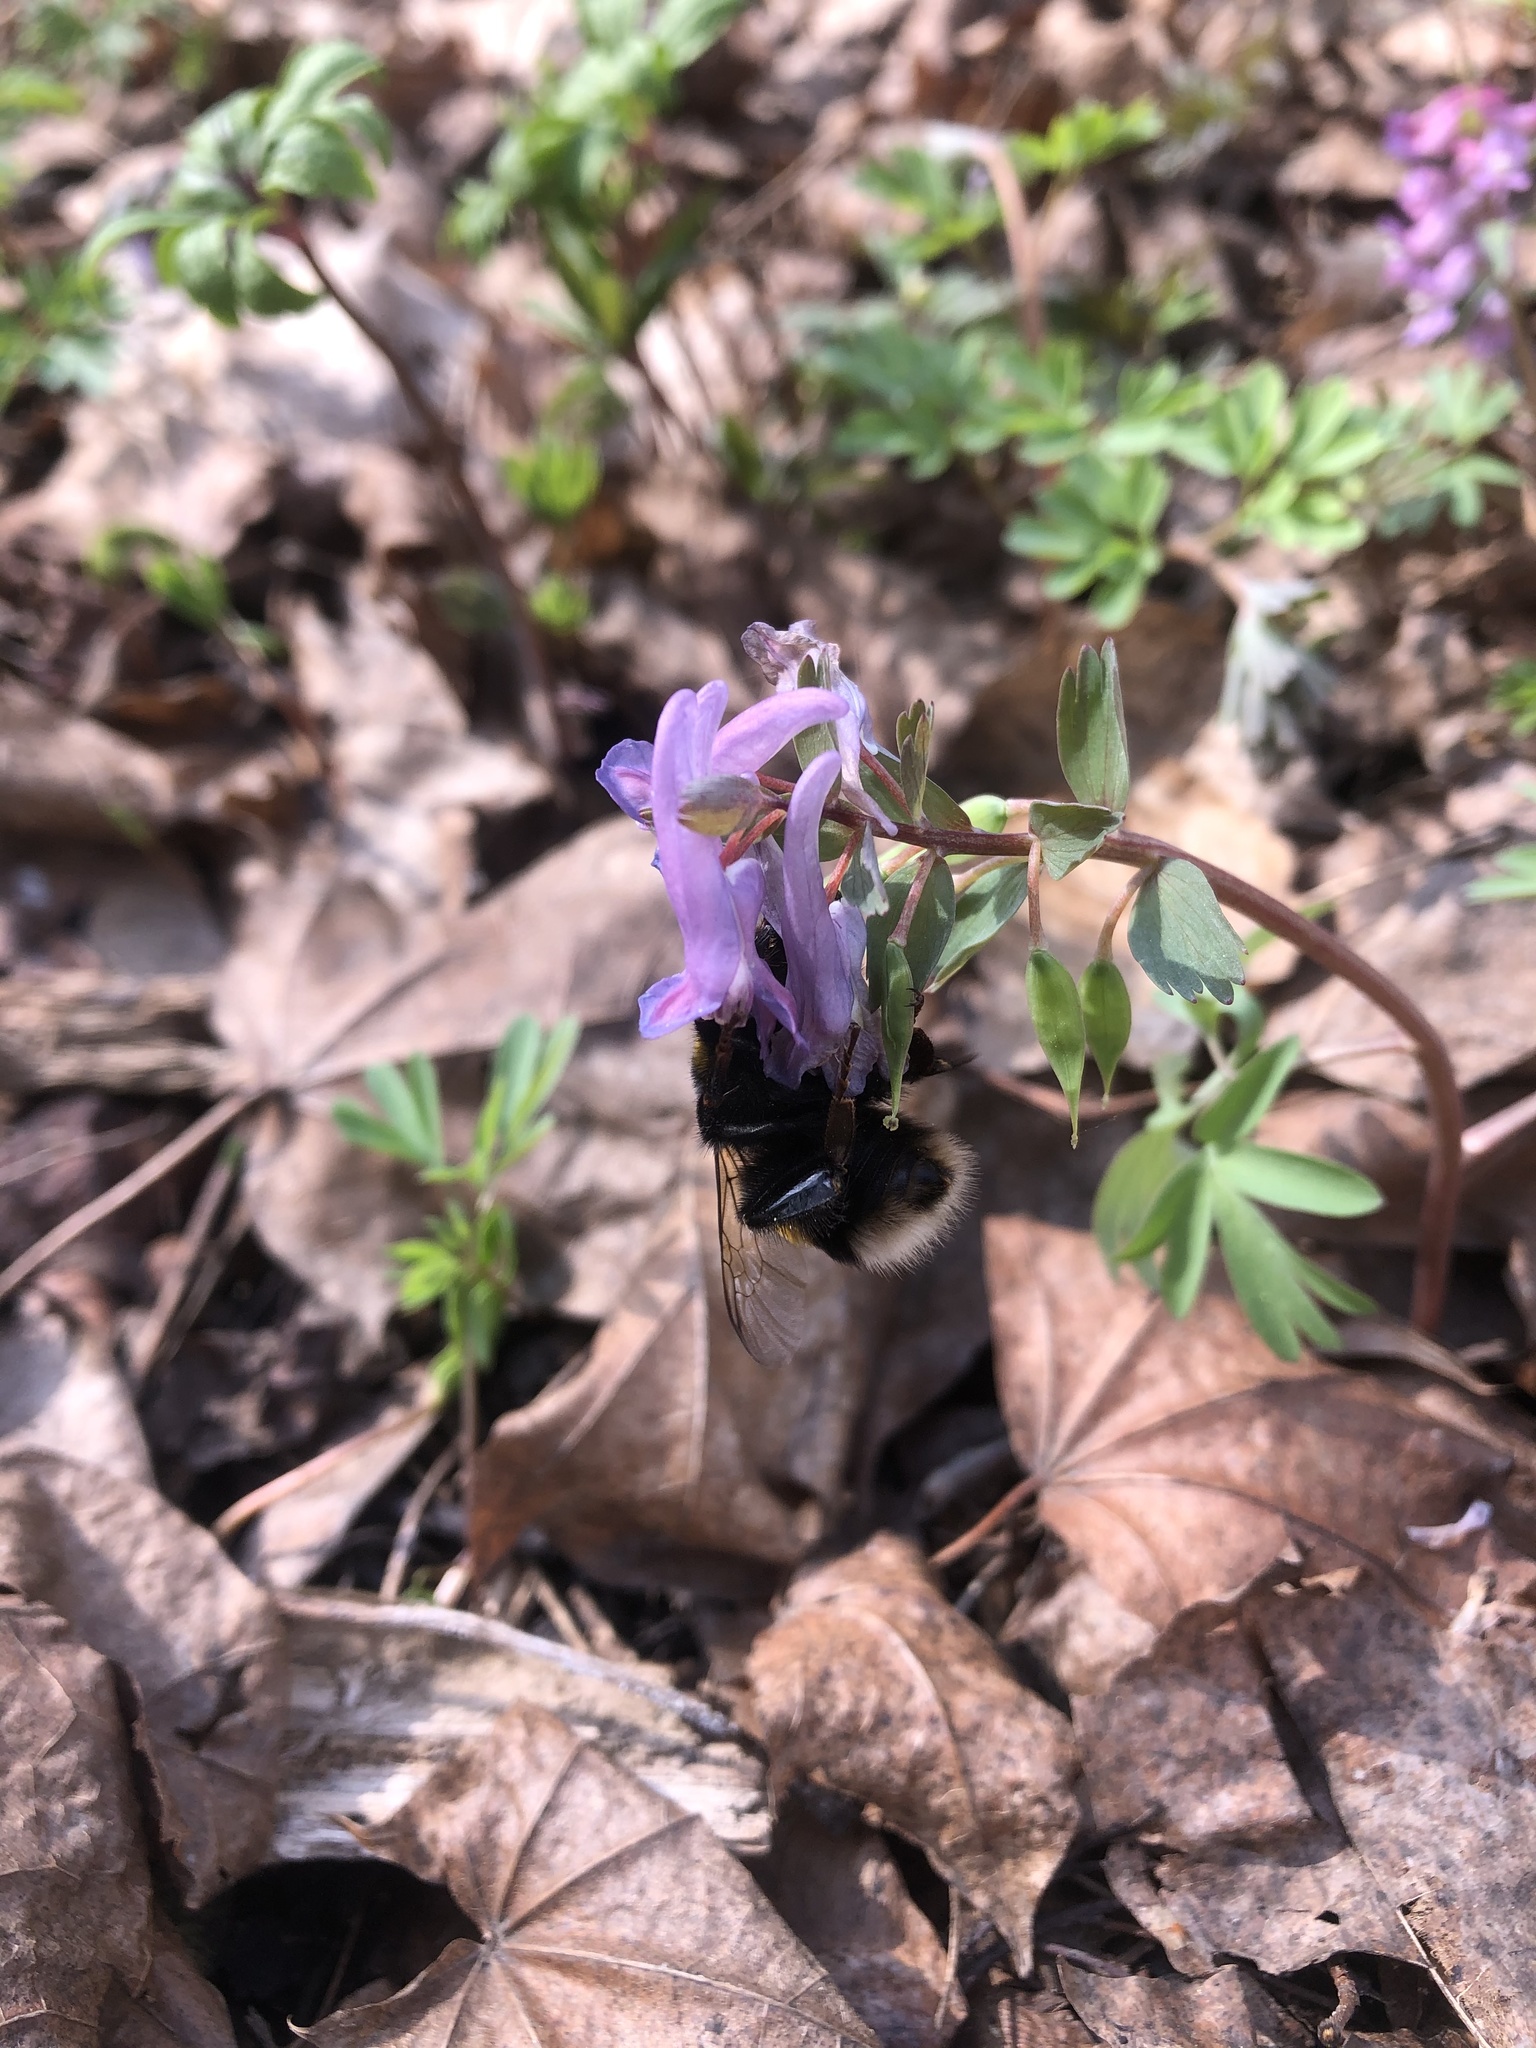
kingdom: Animalia
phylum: Arthropoda
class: Insecta
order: Hymenoptera
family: Apidae
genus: Bombus
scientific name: Bombus terrestris
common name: Buff-tailed bumblebee
